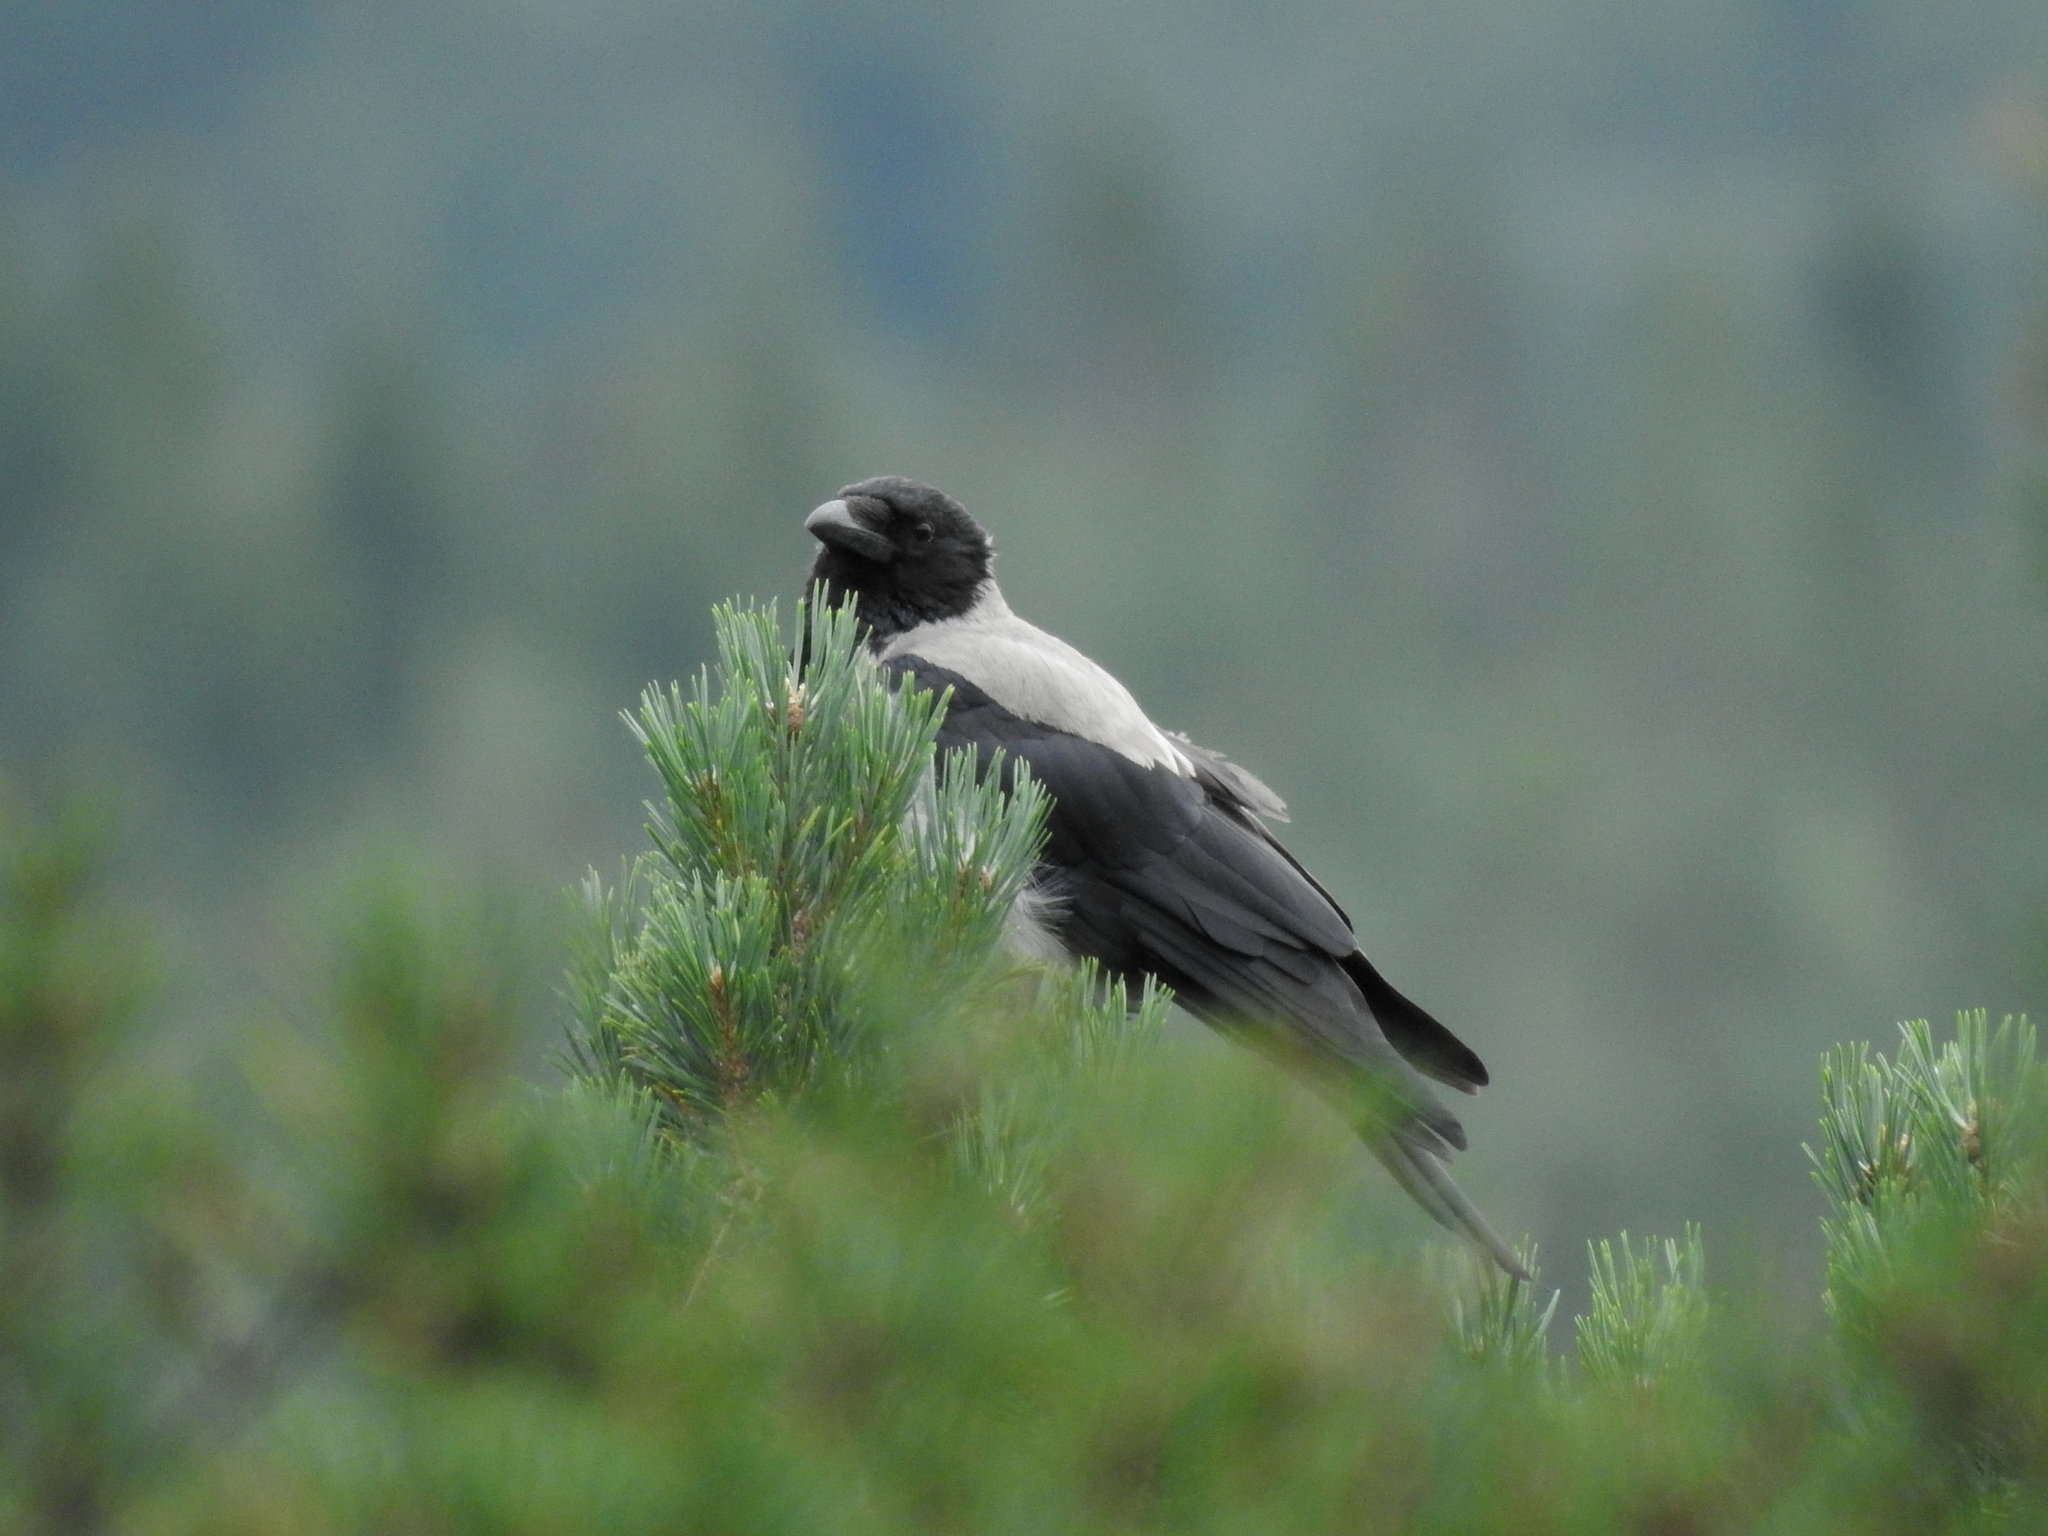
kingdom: Animalia
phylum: Chordata
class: Aves
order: Passeriformes
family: Corvidae
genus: Corvus
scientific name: Corvus cornix
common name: Hooded crow
